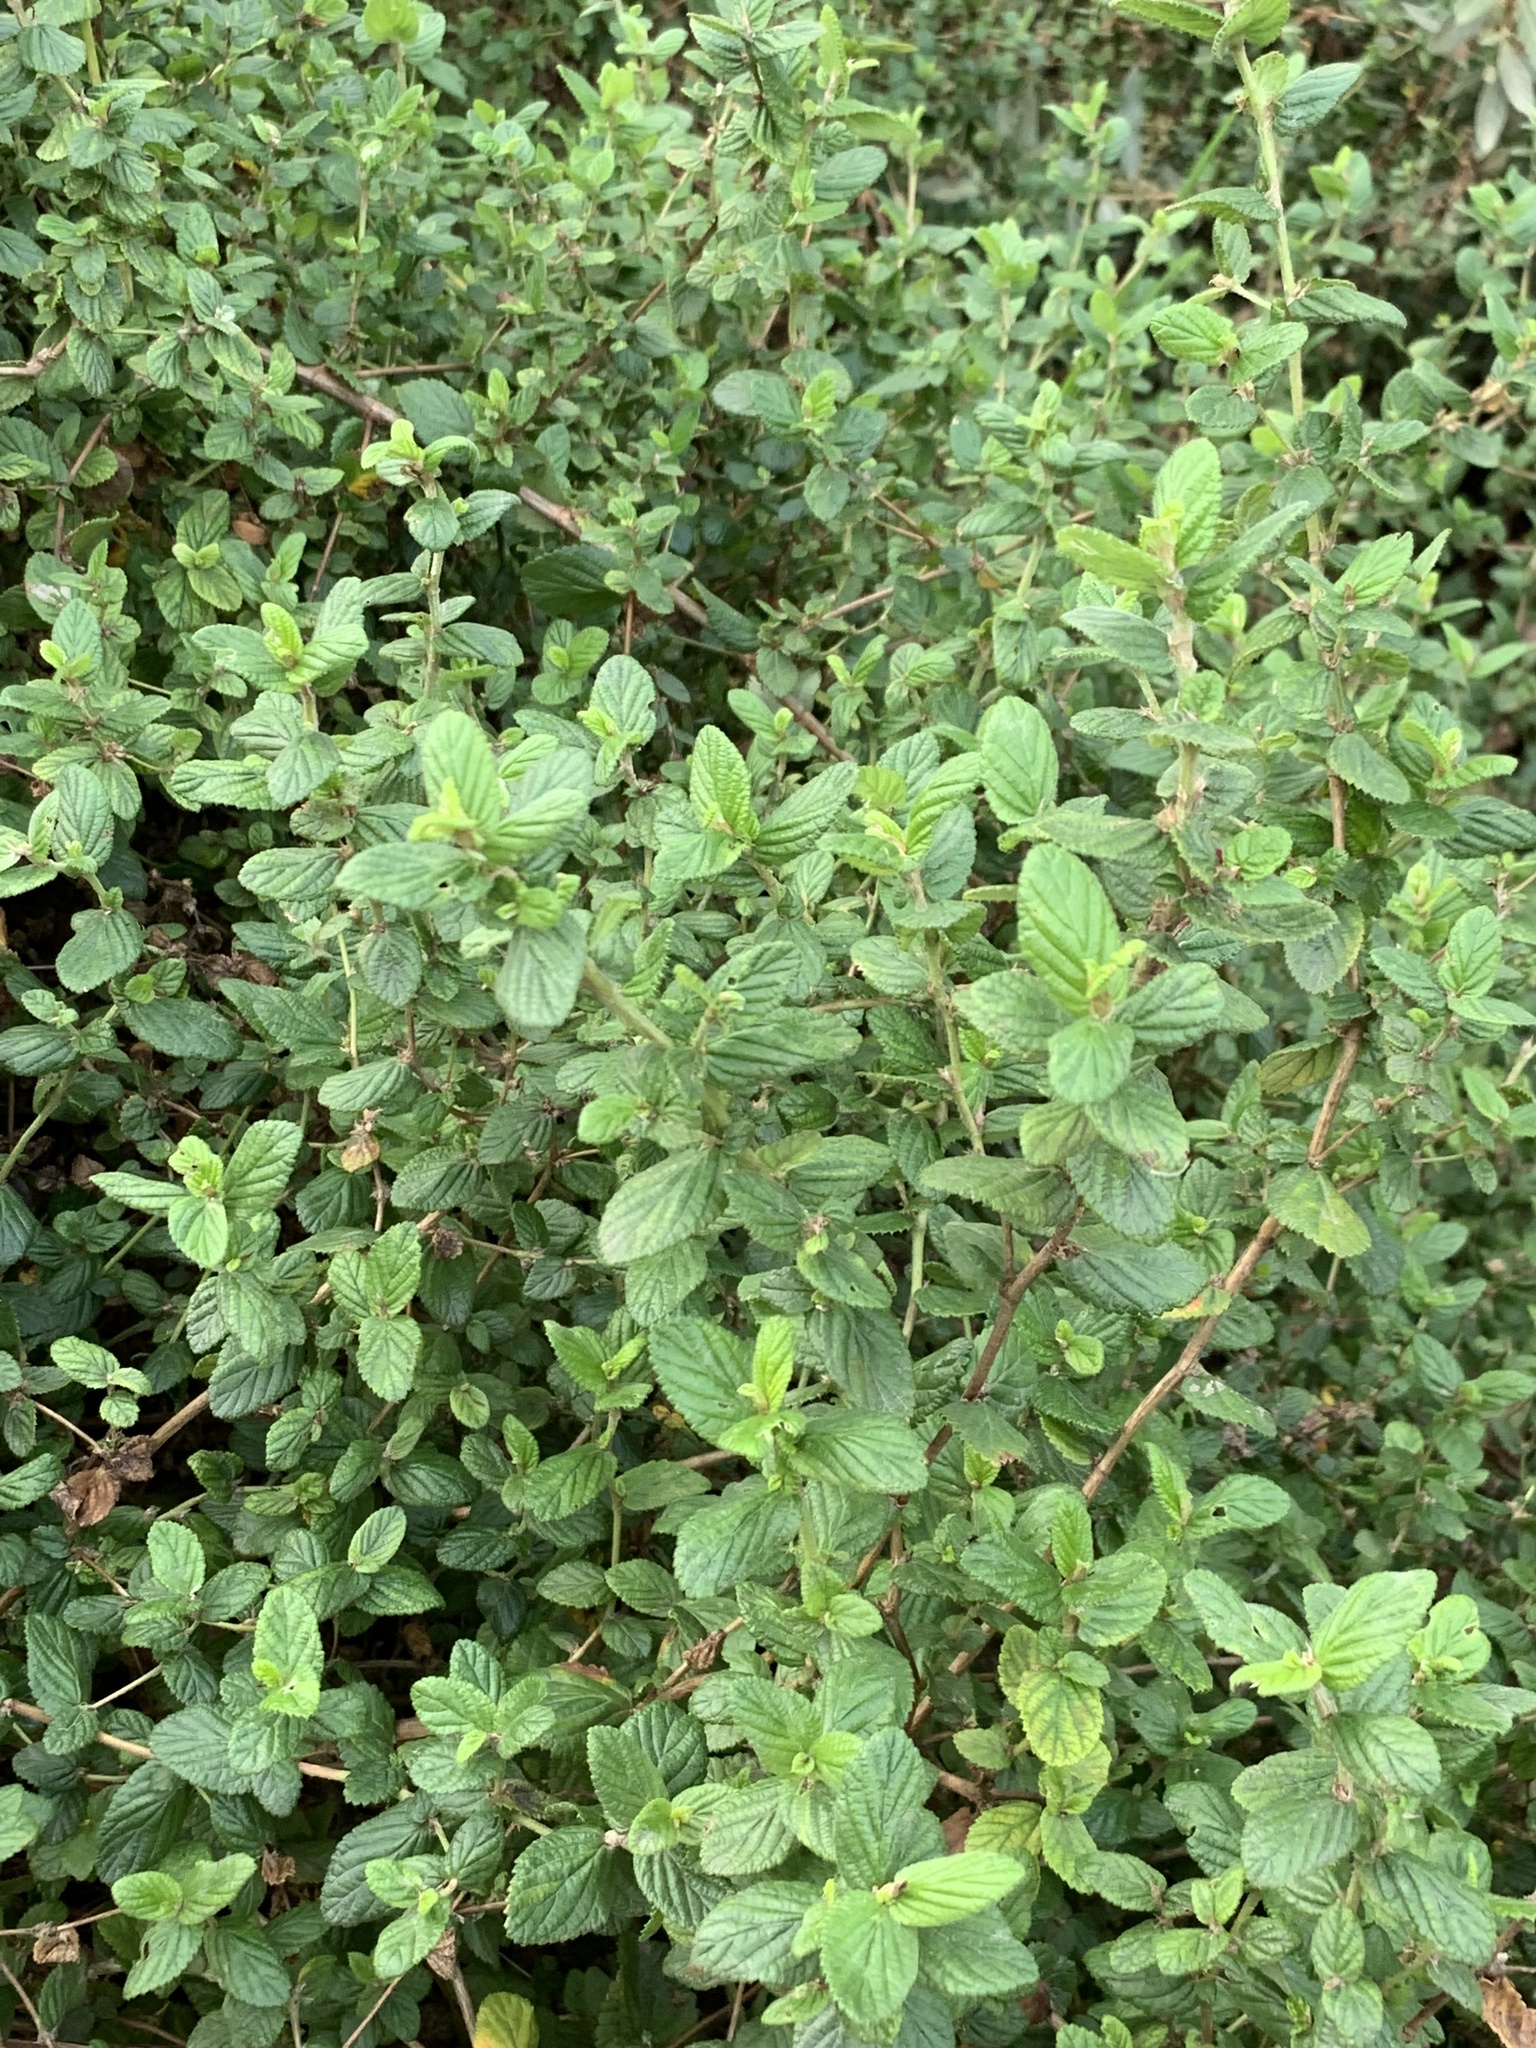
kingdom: Plantae
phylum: Tracheophyta
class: Magnoliopsida
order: Rosales
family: Rosaceae
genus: Cliffortia
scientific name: Cliffortia odorata
